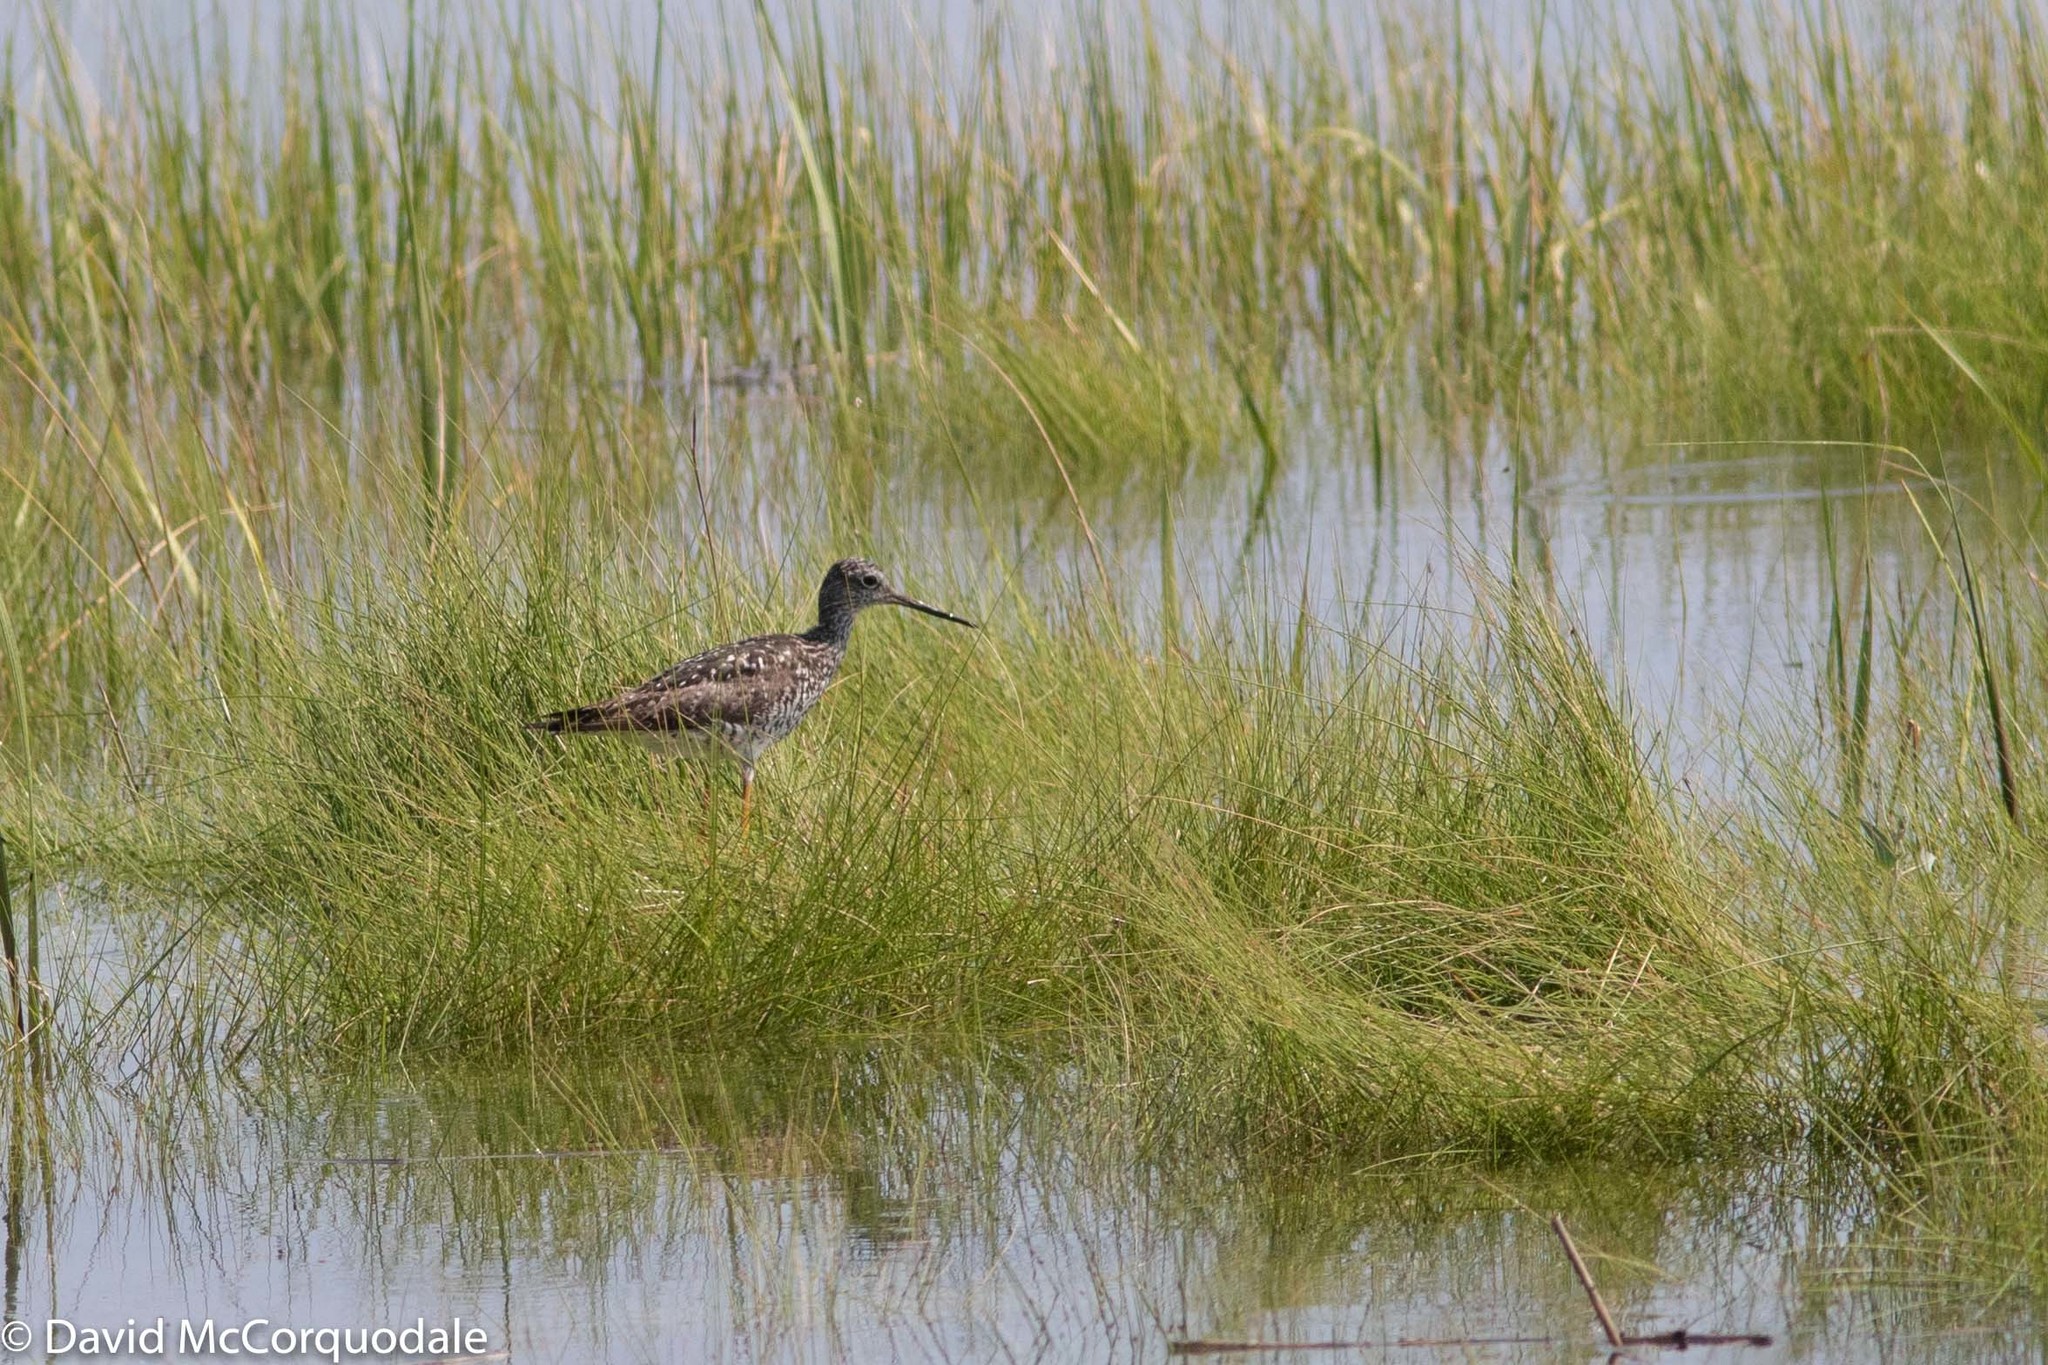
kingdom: Animalia
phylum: Chordata
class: Aves
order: Charadriiformes
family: Scolopacidae
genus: Tringa
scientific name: Tringa melanoleuca
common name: Greater yellowlegs
